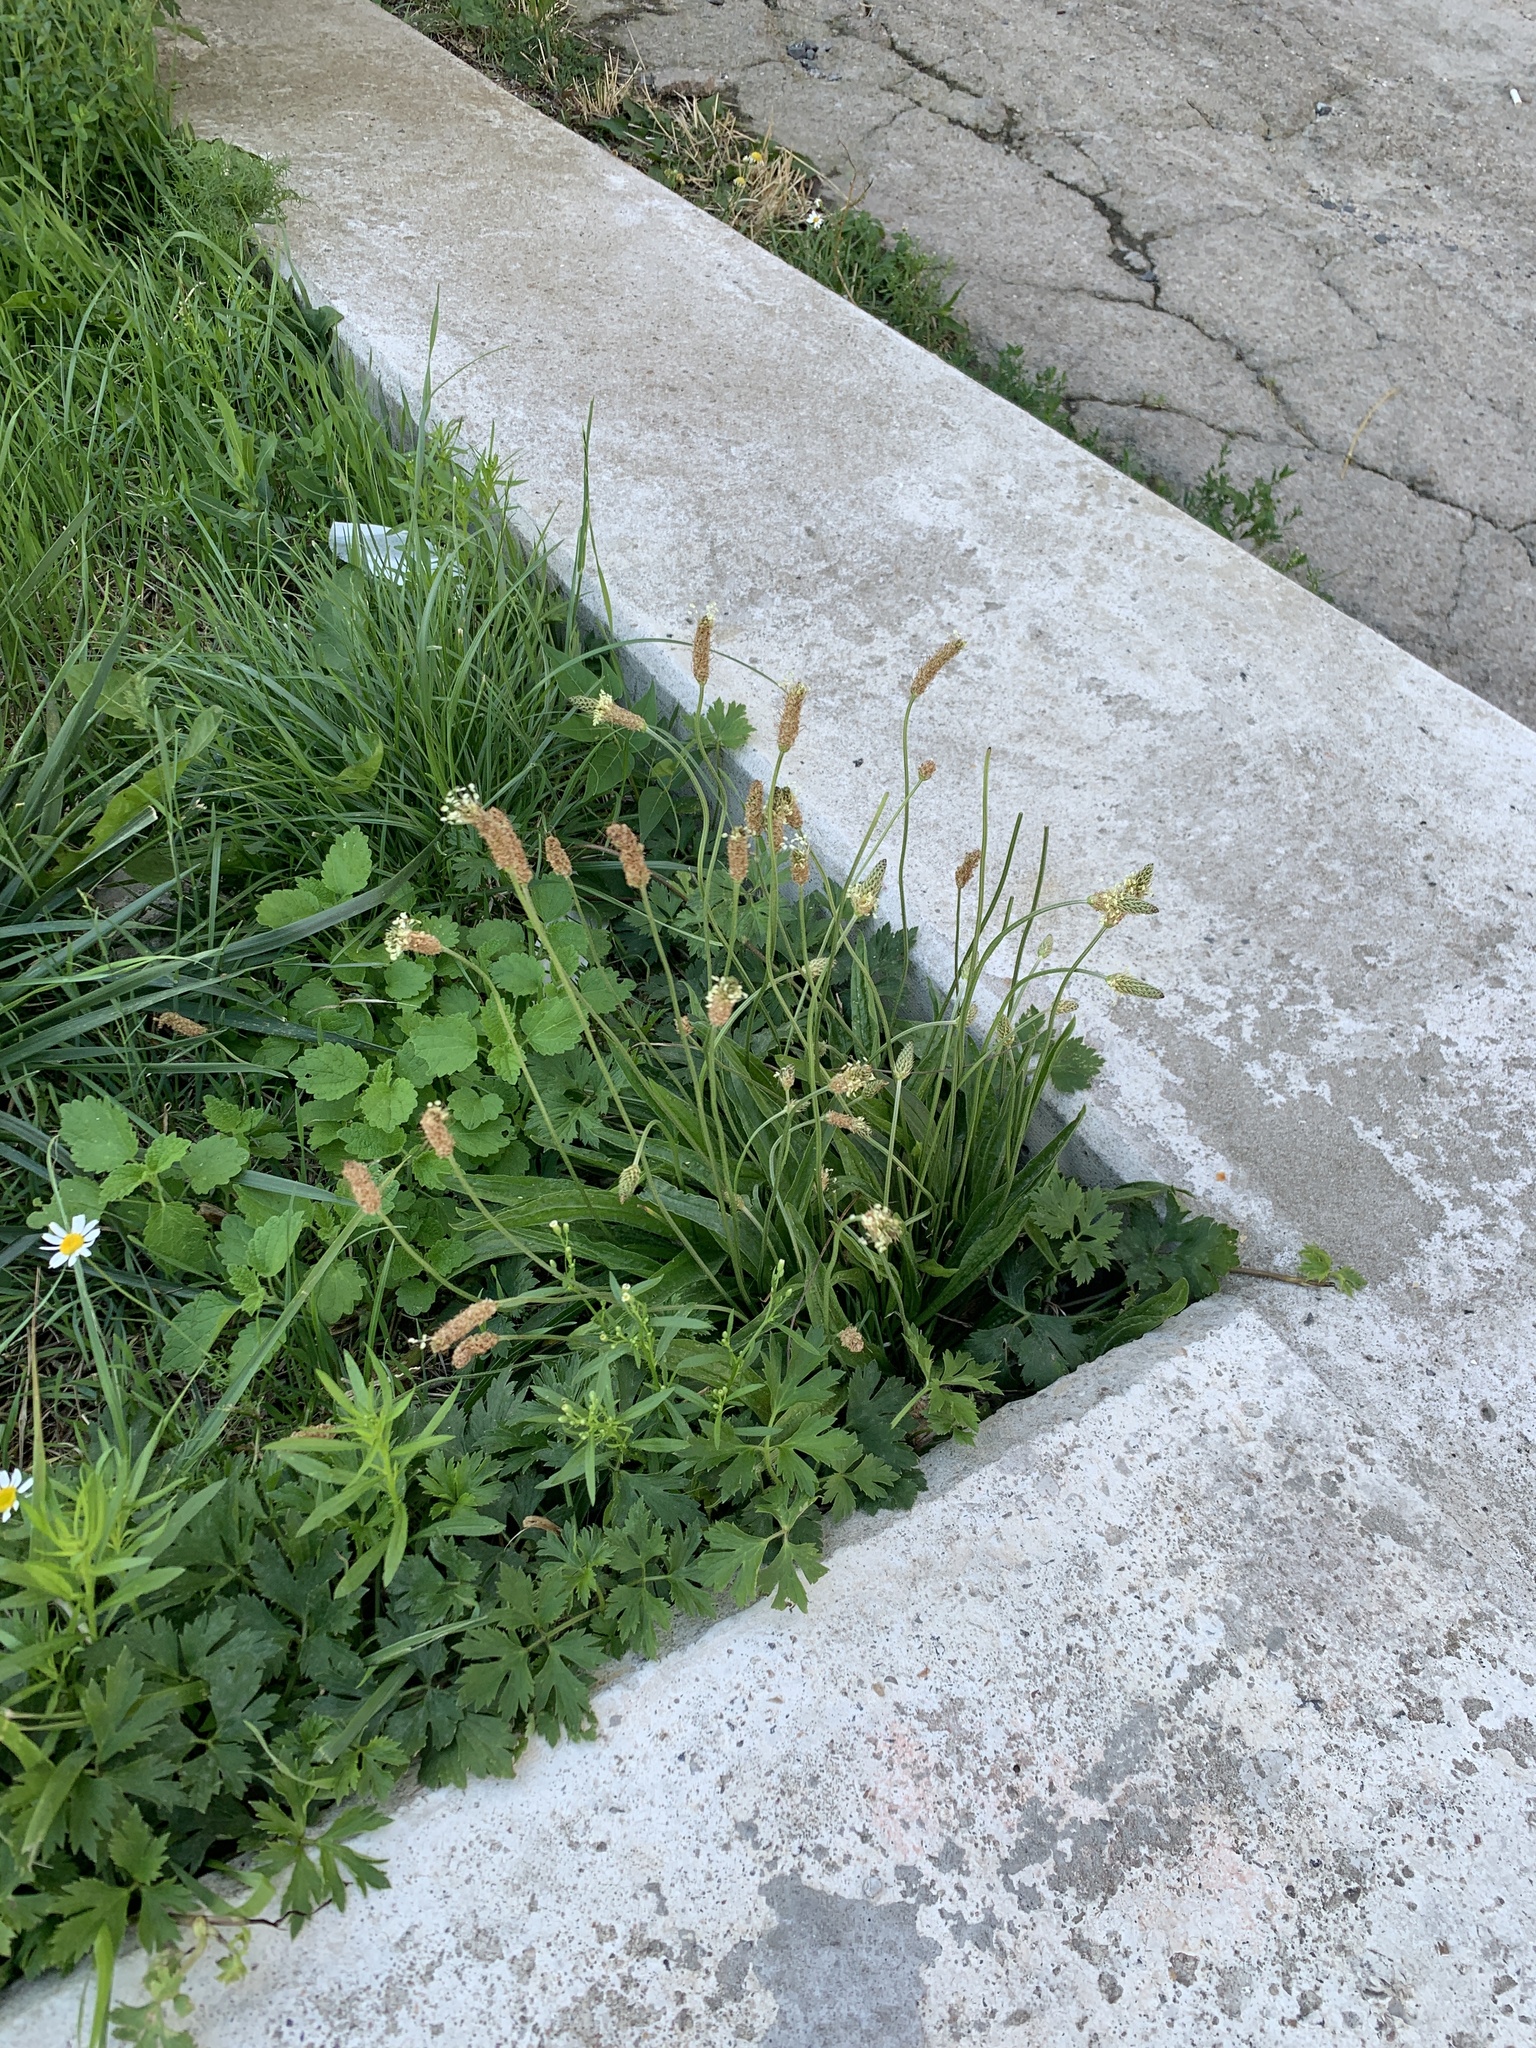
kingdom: Plantae
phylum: Tracheophyta
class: Magnoliopsida
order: Lamiales
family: Plantaginaceae
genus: Plantago
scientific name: Plantago lanceolata
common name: Ribwort plantain
